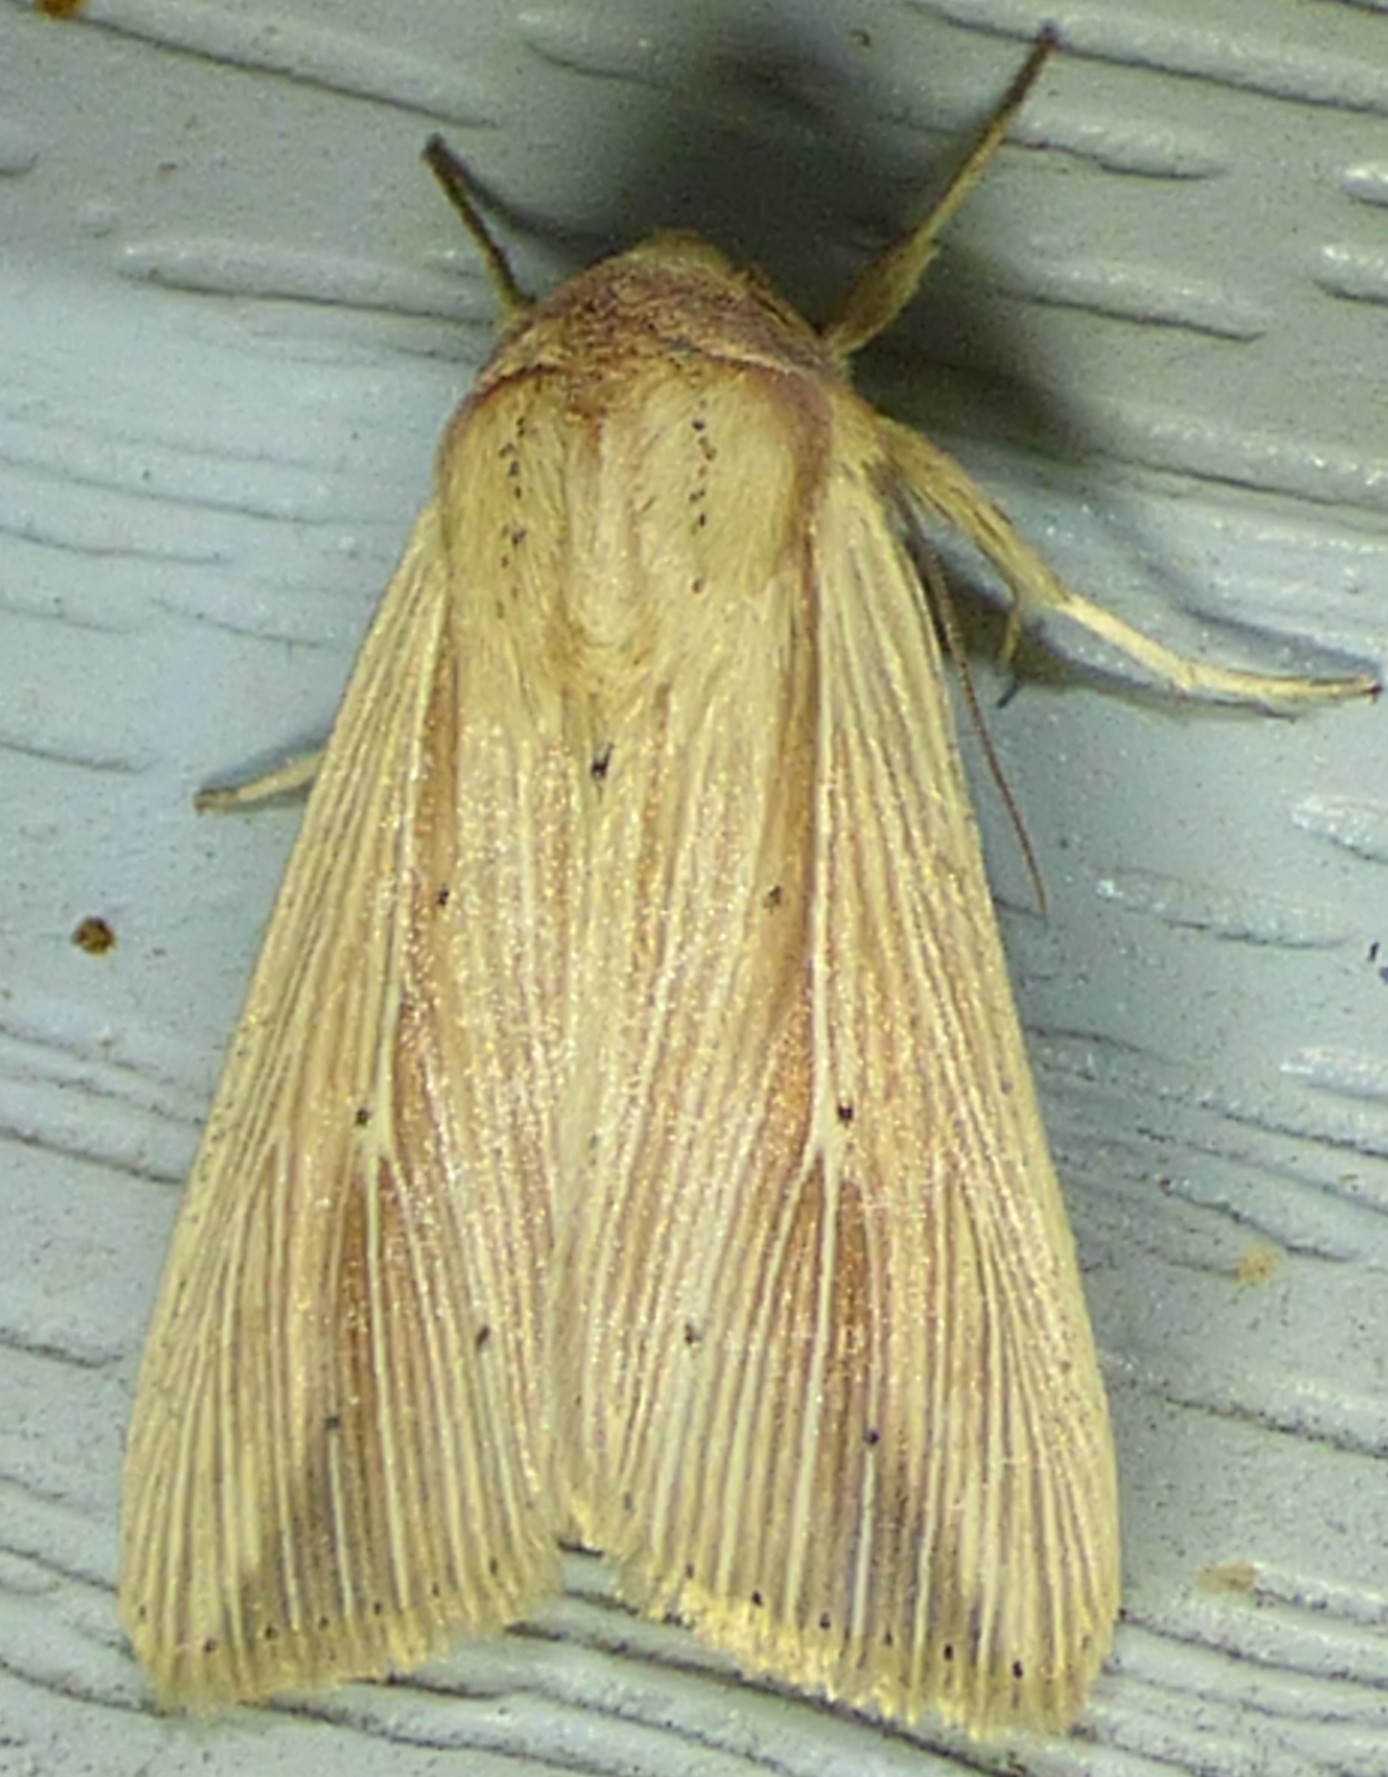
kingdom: Animalia
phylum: Arthropoda
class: Insecta
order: Lepidoptera
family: Noctuidae
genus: Leucania
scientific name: Leucania adjuta
